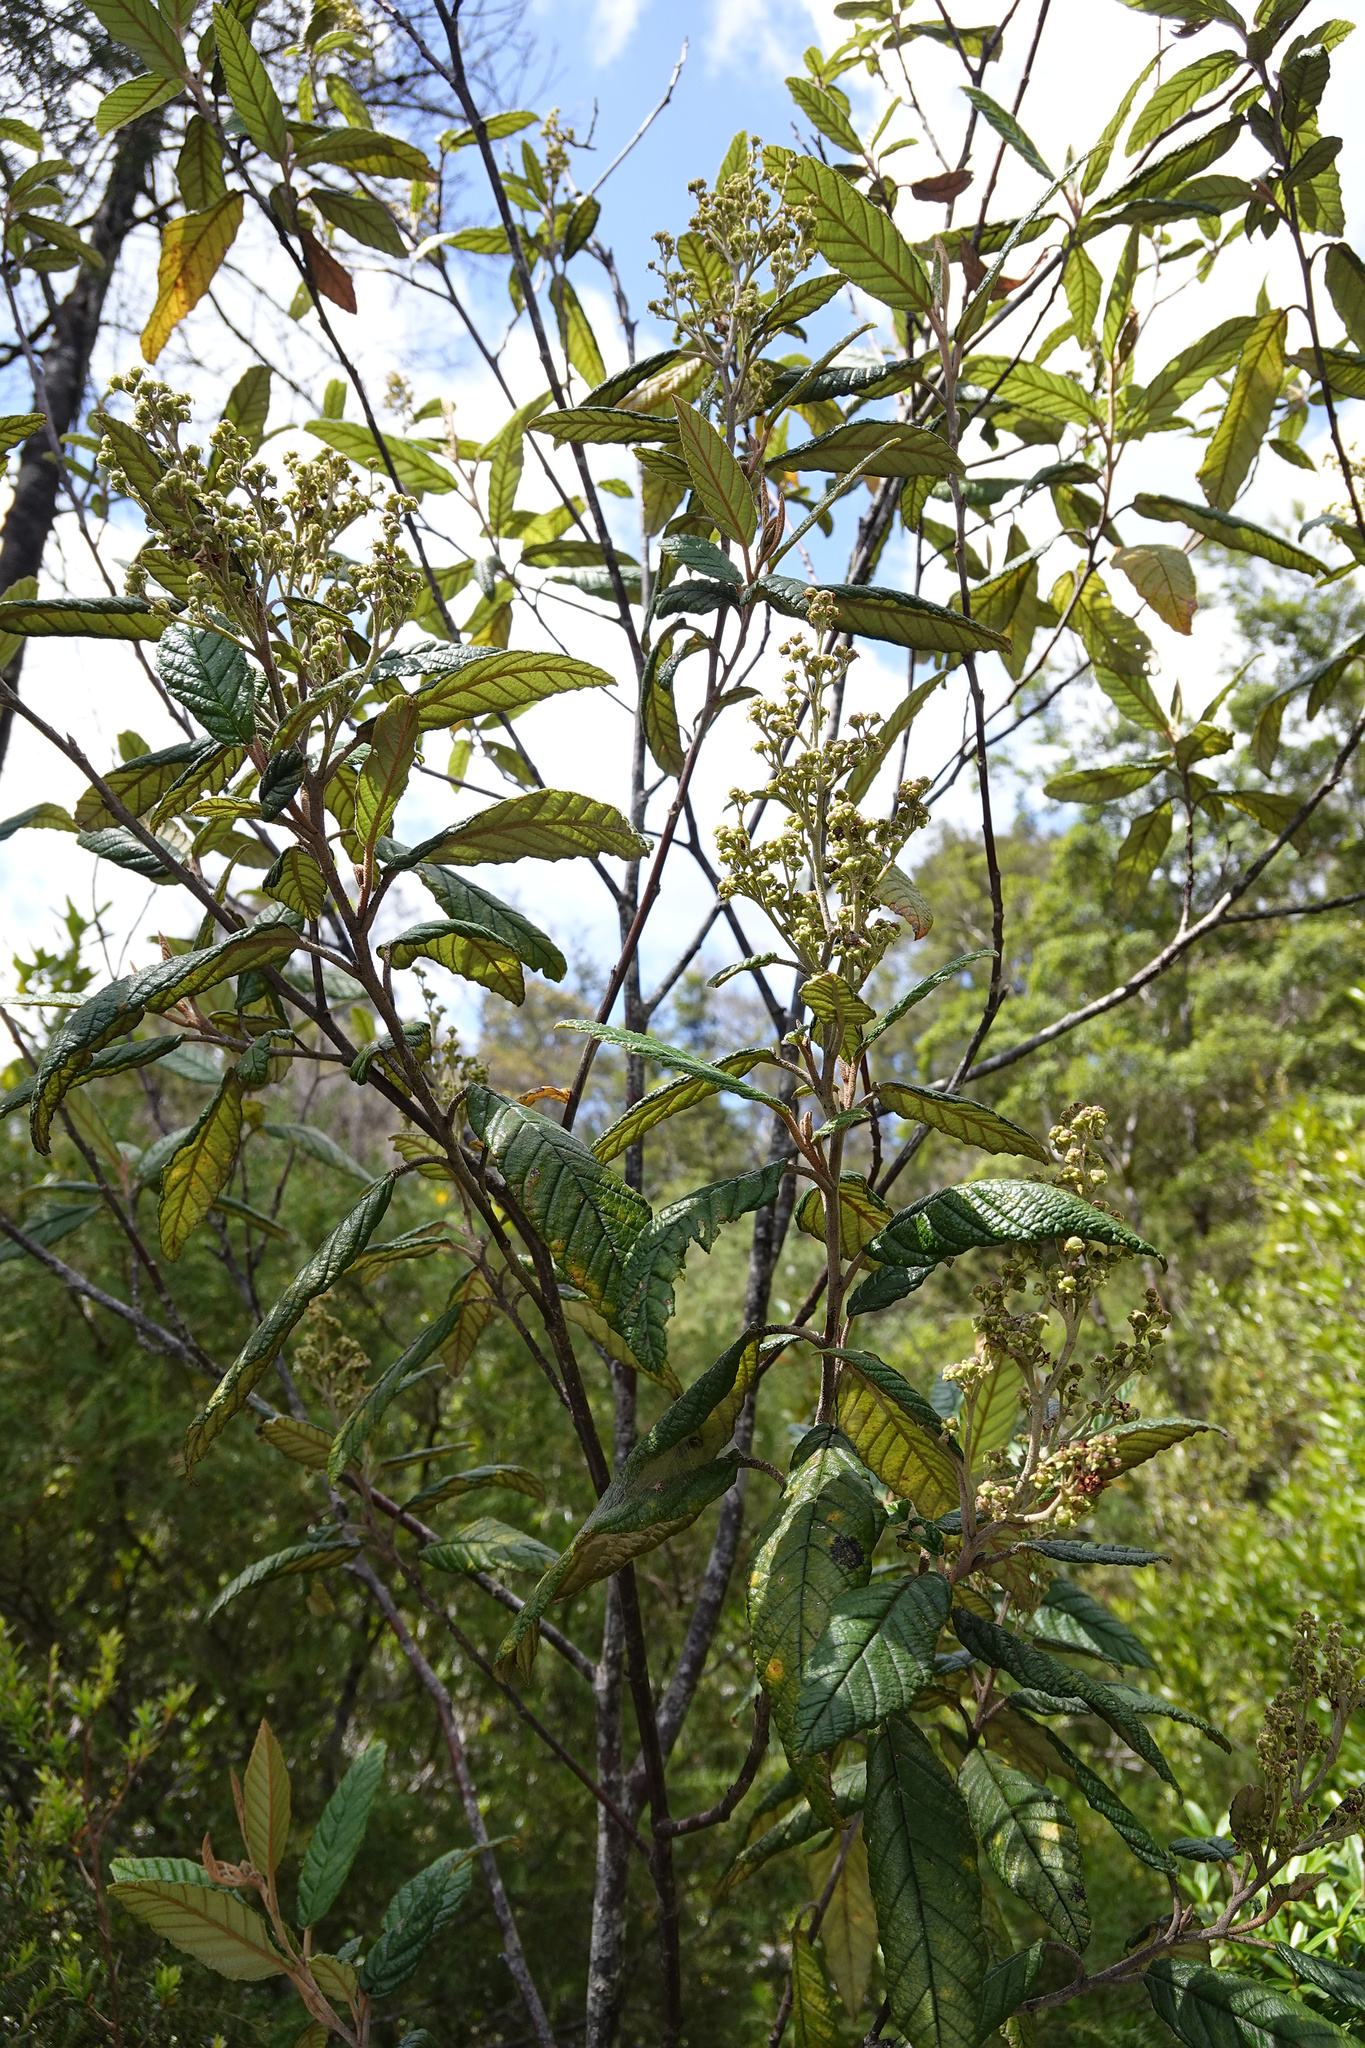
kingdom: Plantae
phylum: Tracheophyta
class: Magnoliopsida
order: Rosales
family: Rhamnaceae
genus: Pomaderris
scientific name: Pomaderris apetala
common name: Hazel pomaderris
